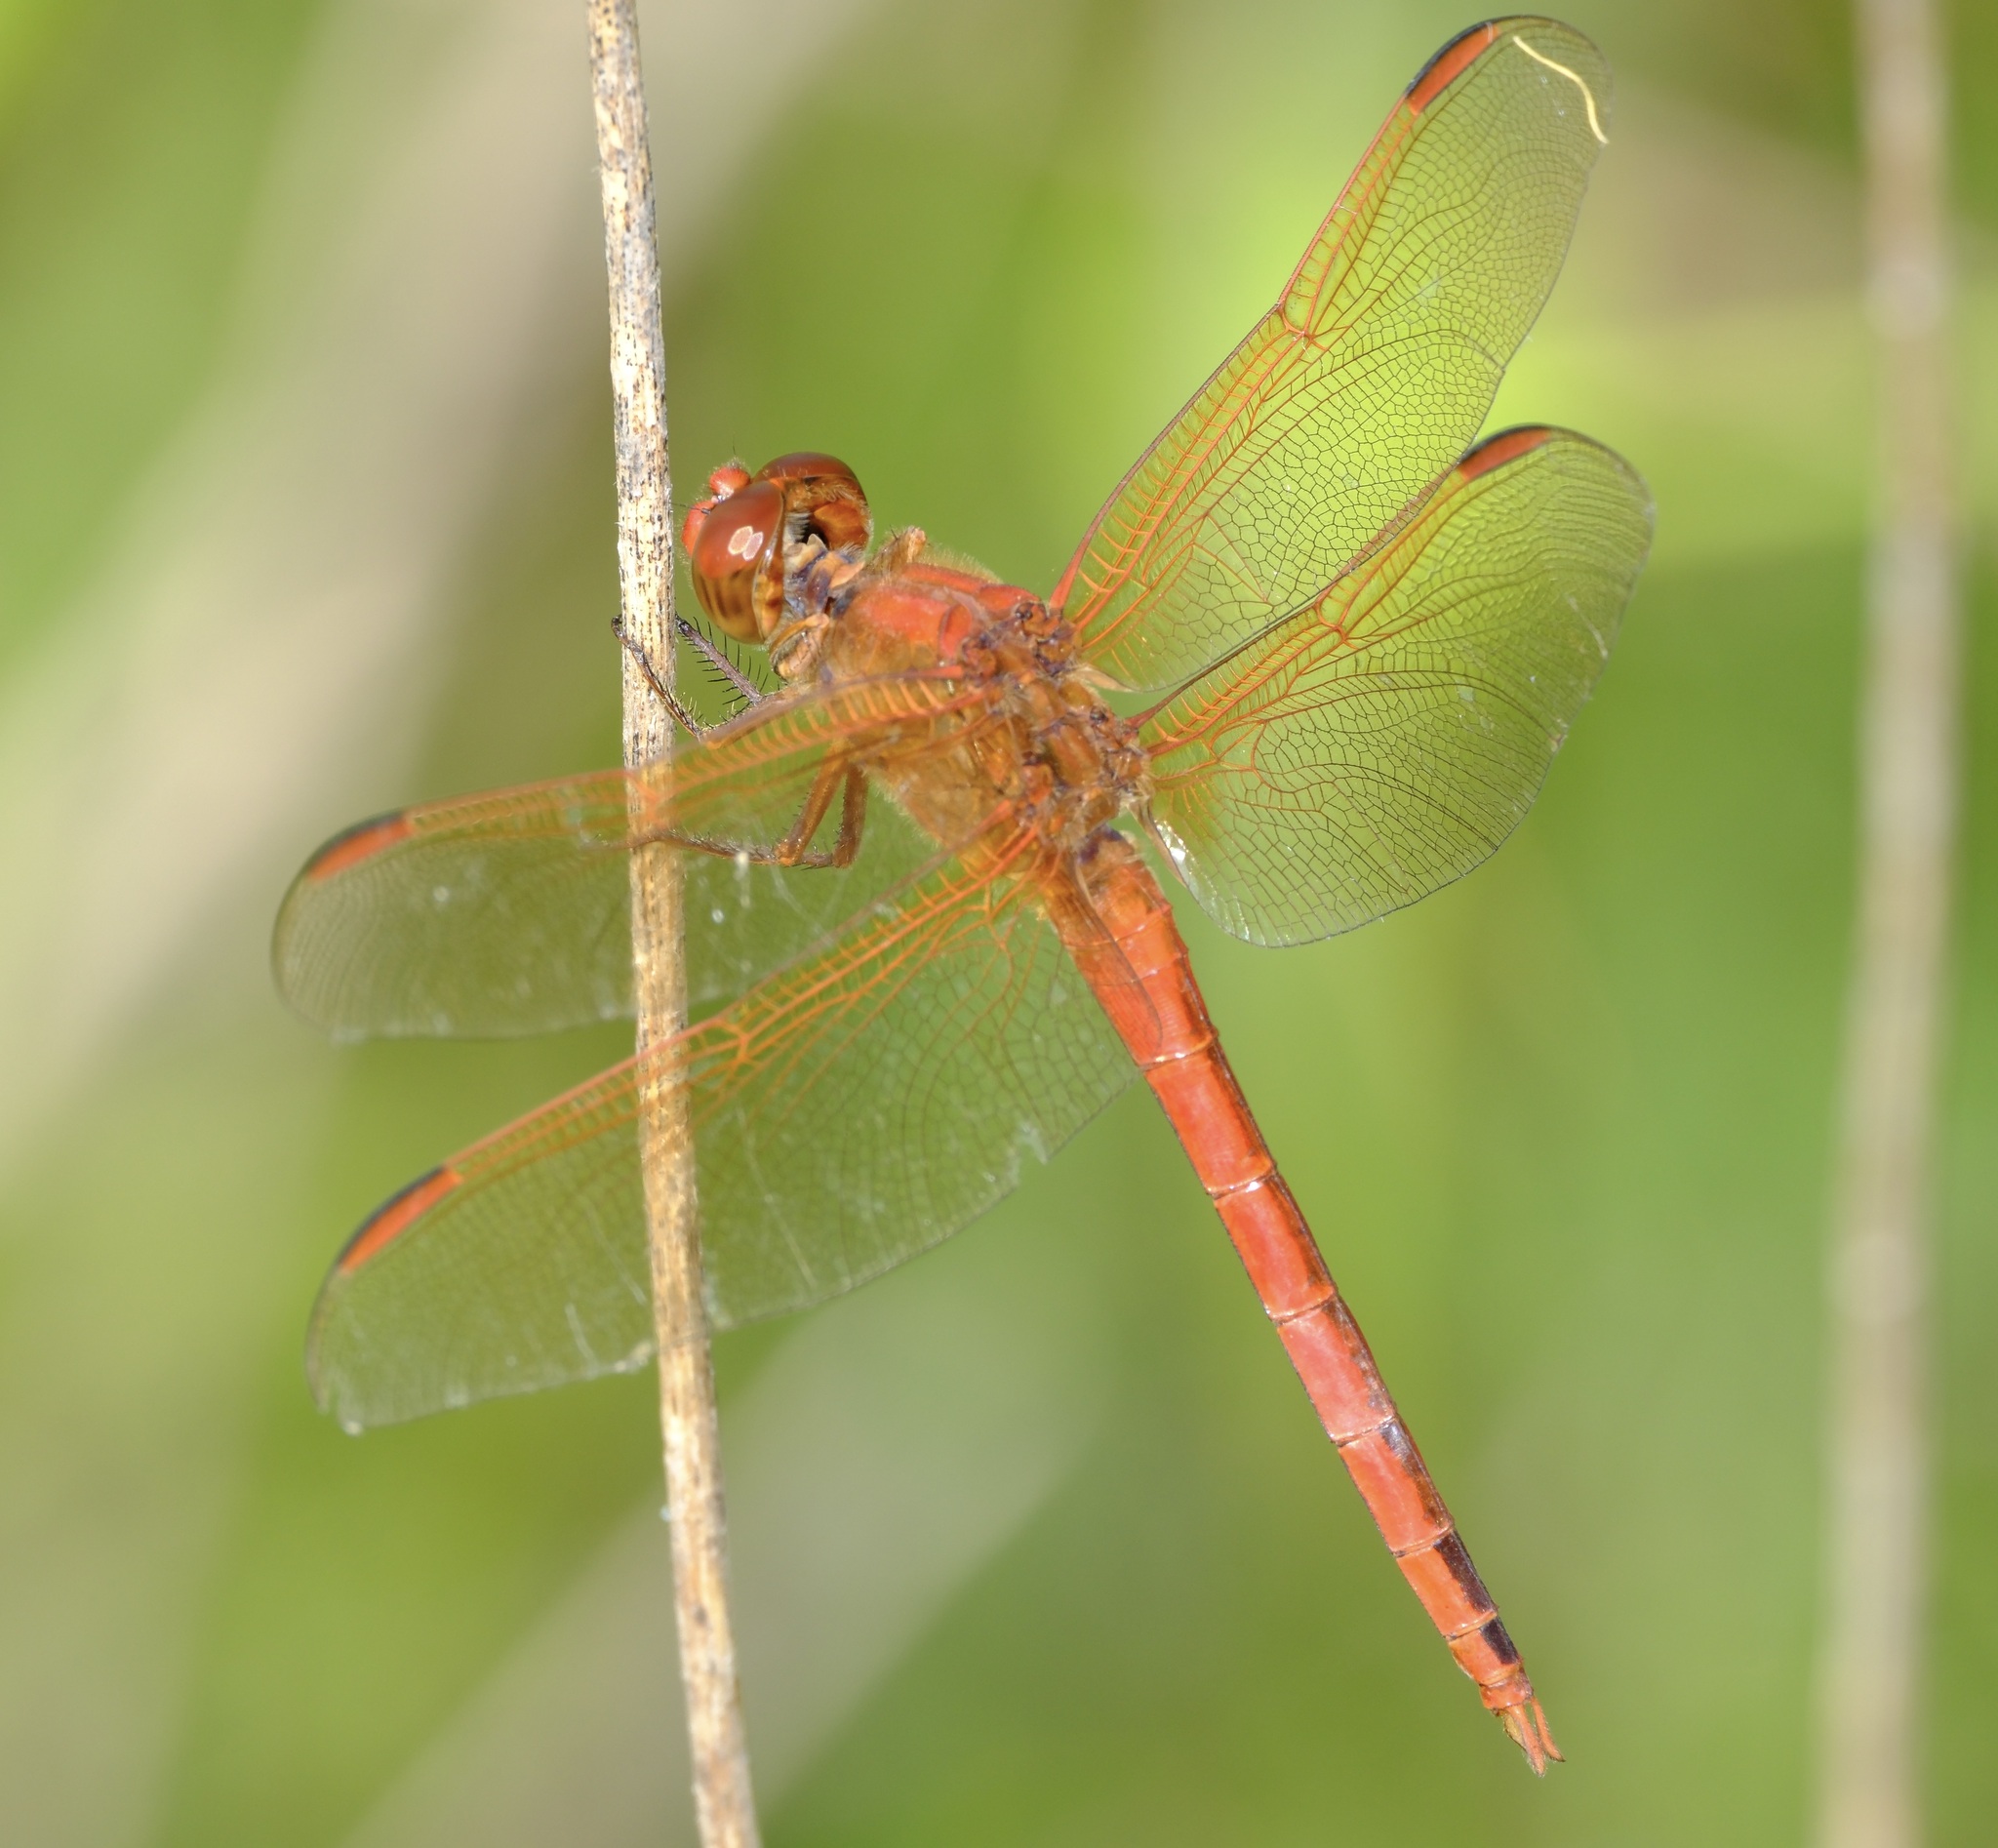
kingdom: Animalia
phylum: Arthropoda
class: Insecta
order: Odonata
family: Libellulidae
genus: Libellula
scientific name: Libellula needhami
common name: Needham's skimmer
